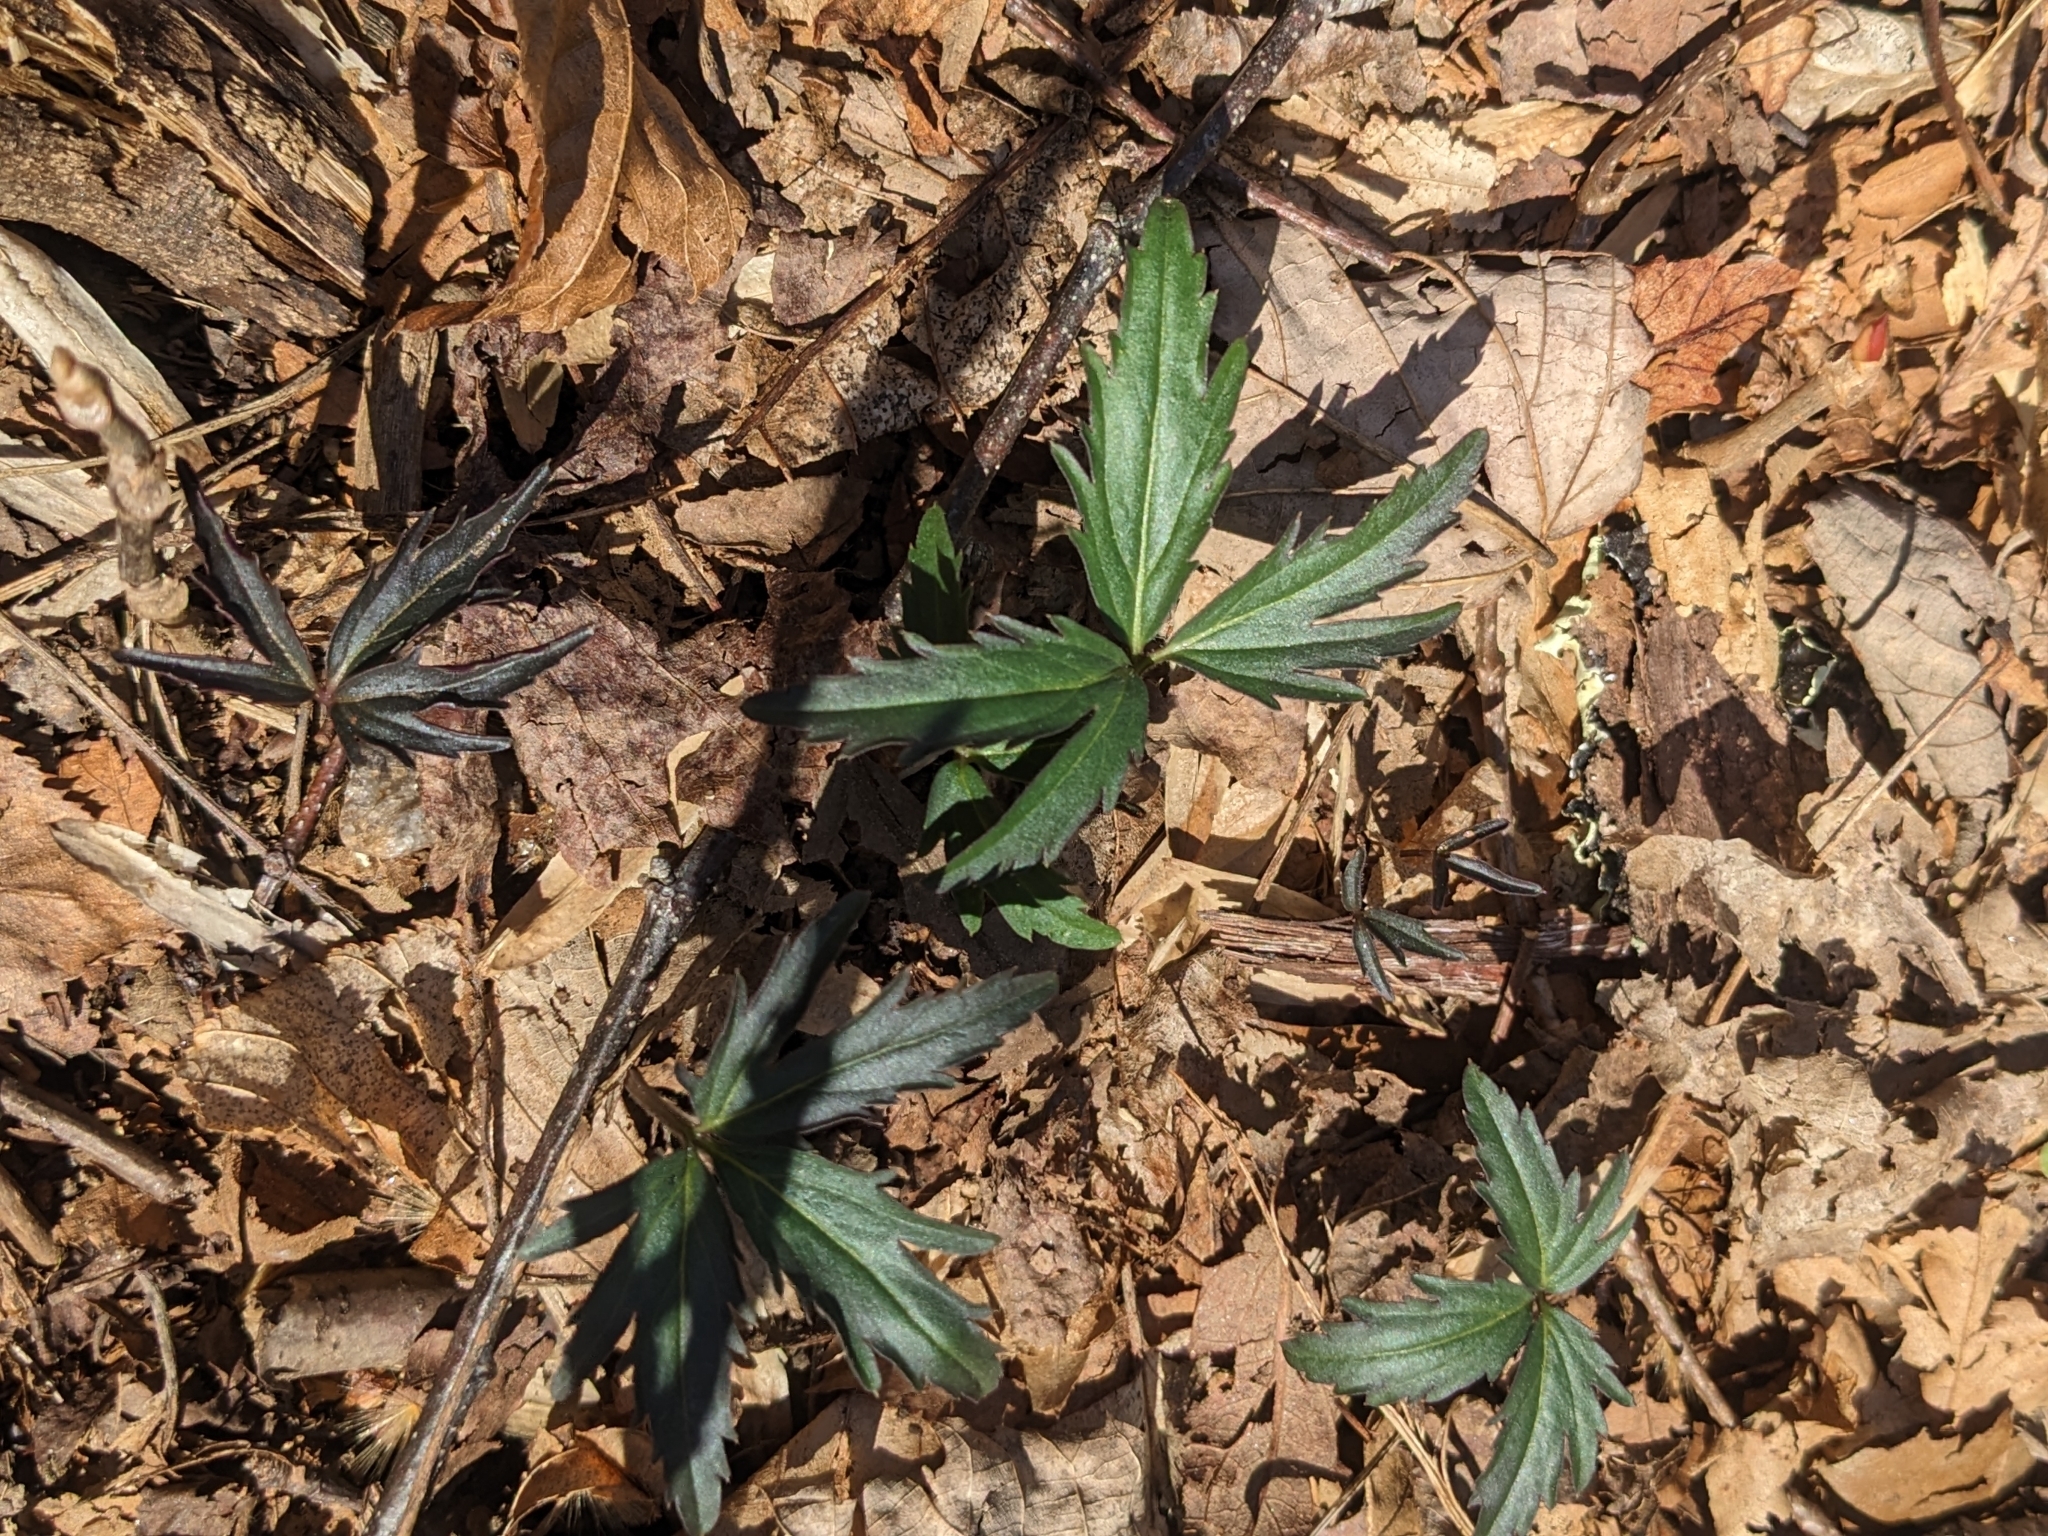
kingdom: Plantae
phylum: Tracheophyta
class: Magnoliopsida
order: Brassicales
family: Brassicaceae
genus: Cardamine
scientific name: Cardamine concatenata
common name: Cut-leaf toothcup
